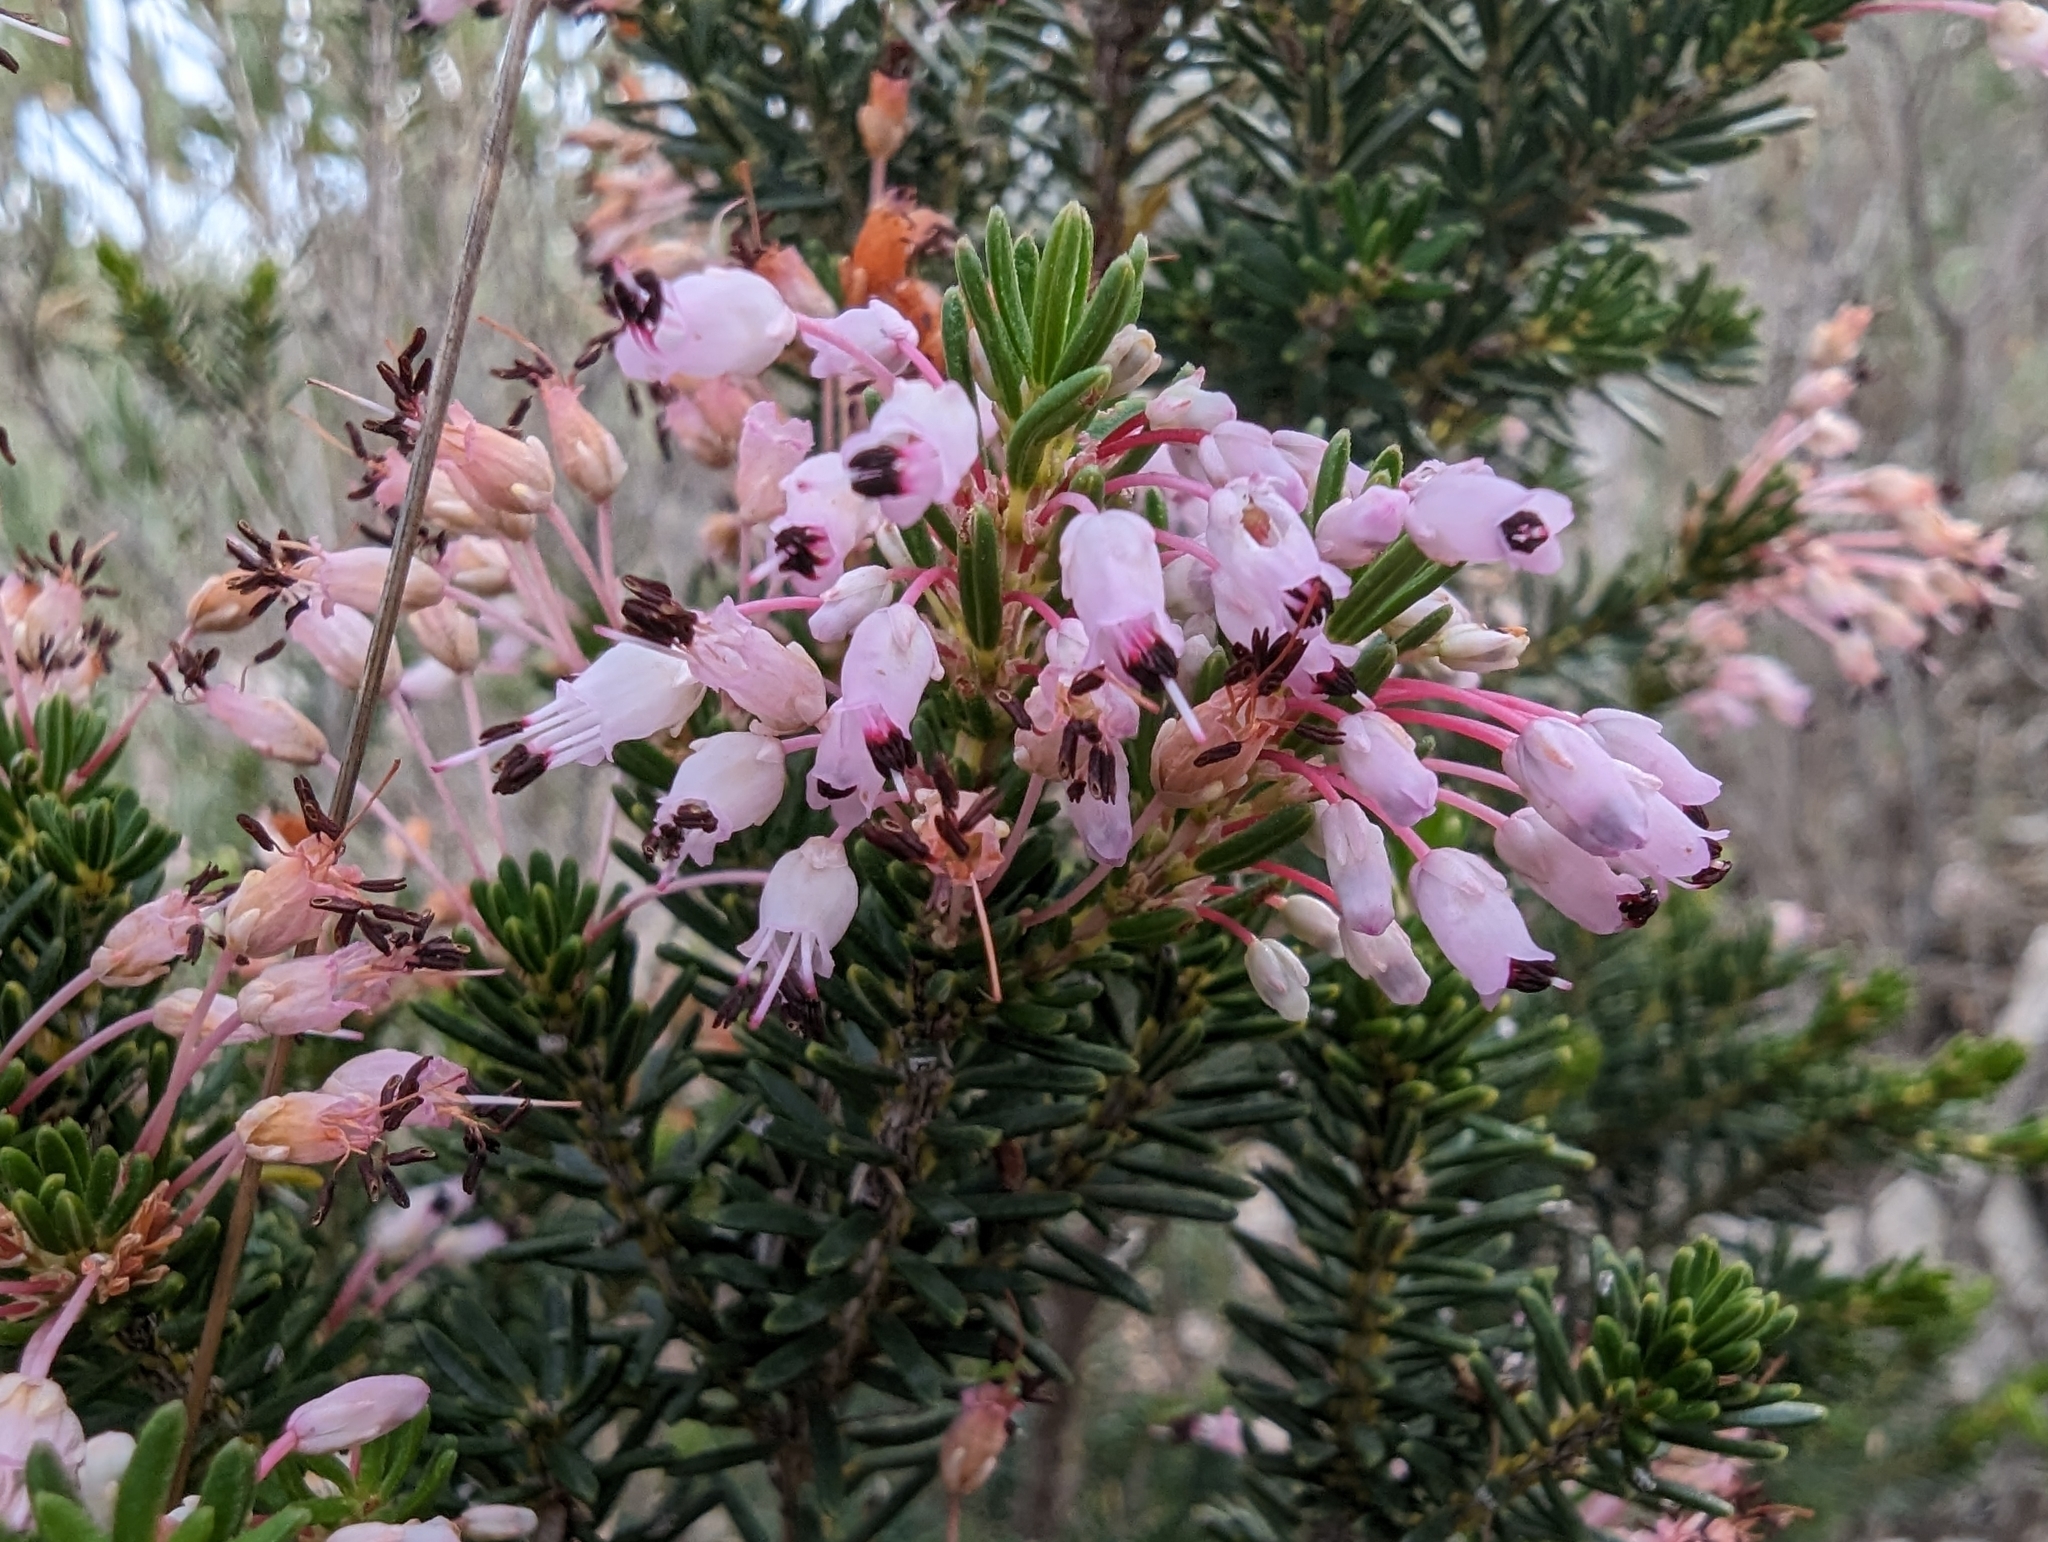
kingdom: Plantae
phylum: Tracheophyta
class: Magnoliopsida
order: Ericales
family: Ericaceae
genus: Erica
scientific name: Erica multiflora
